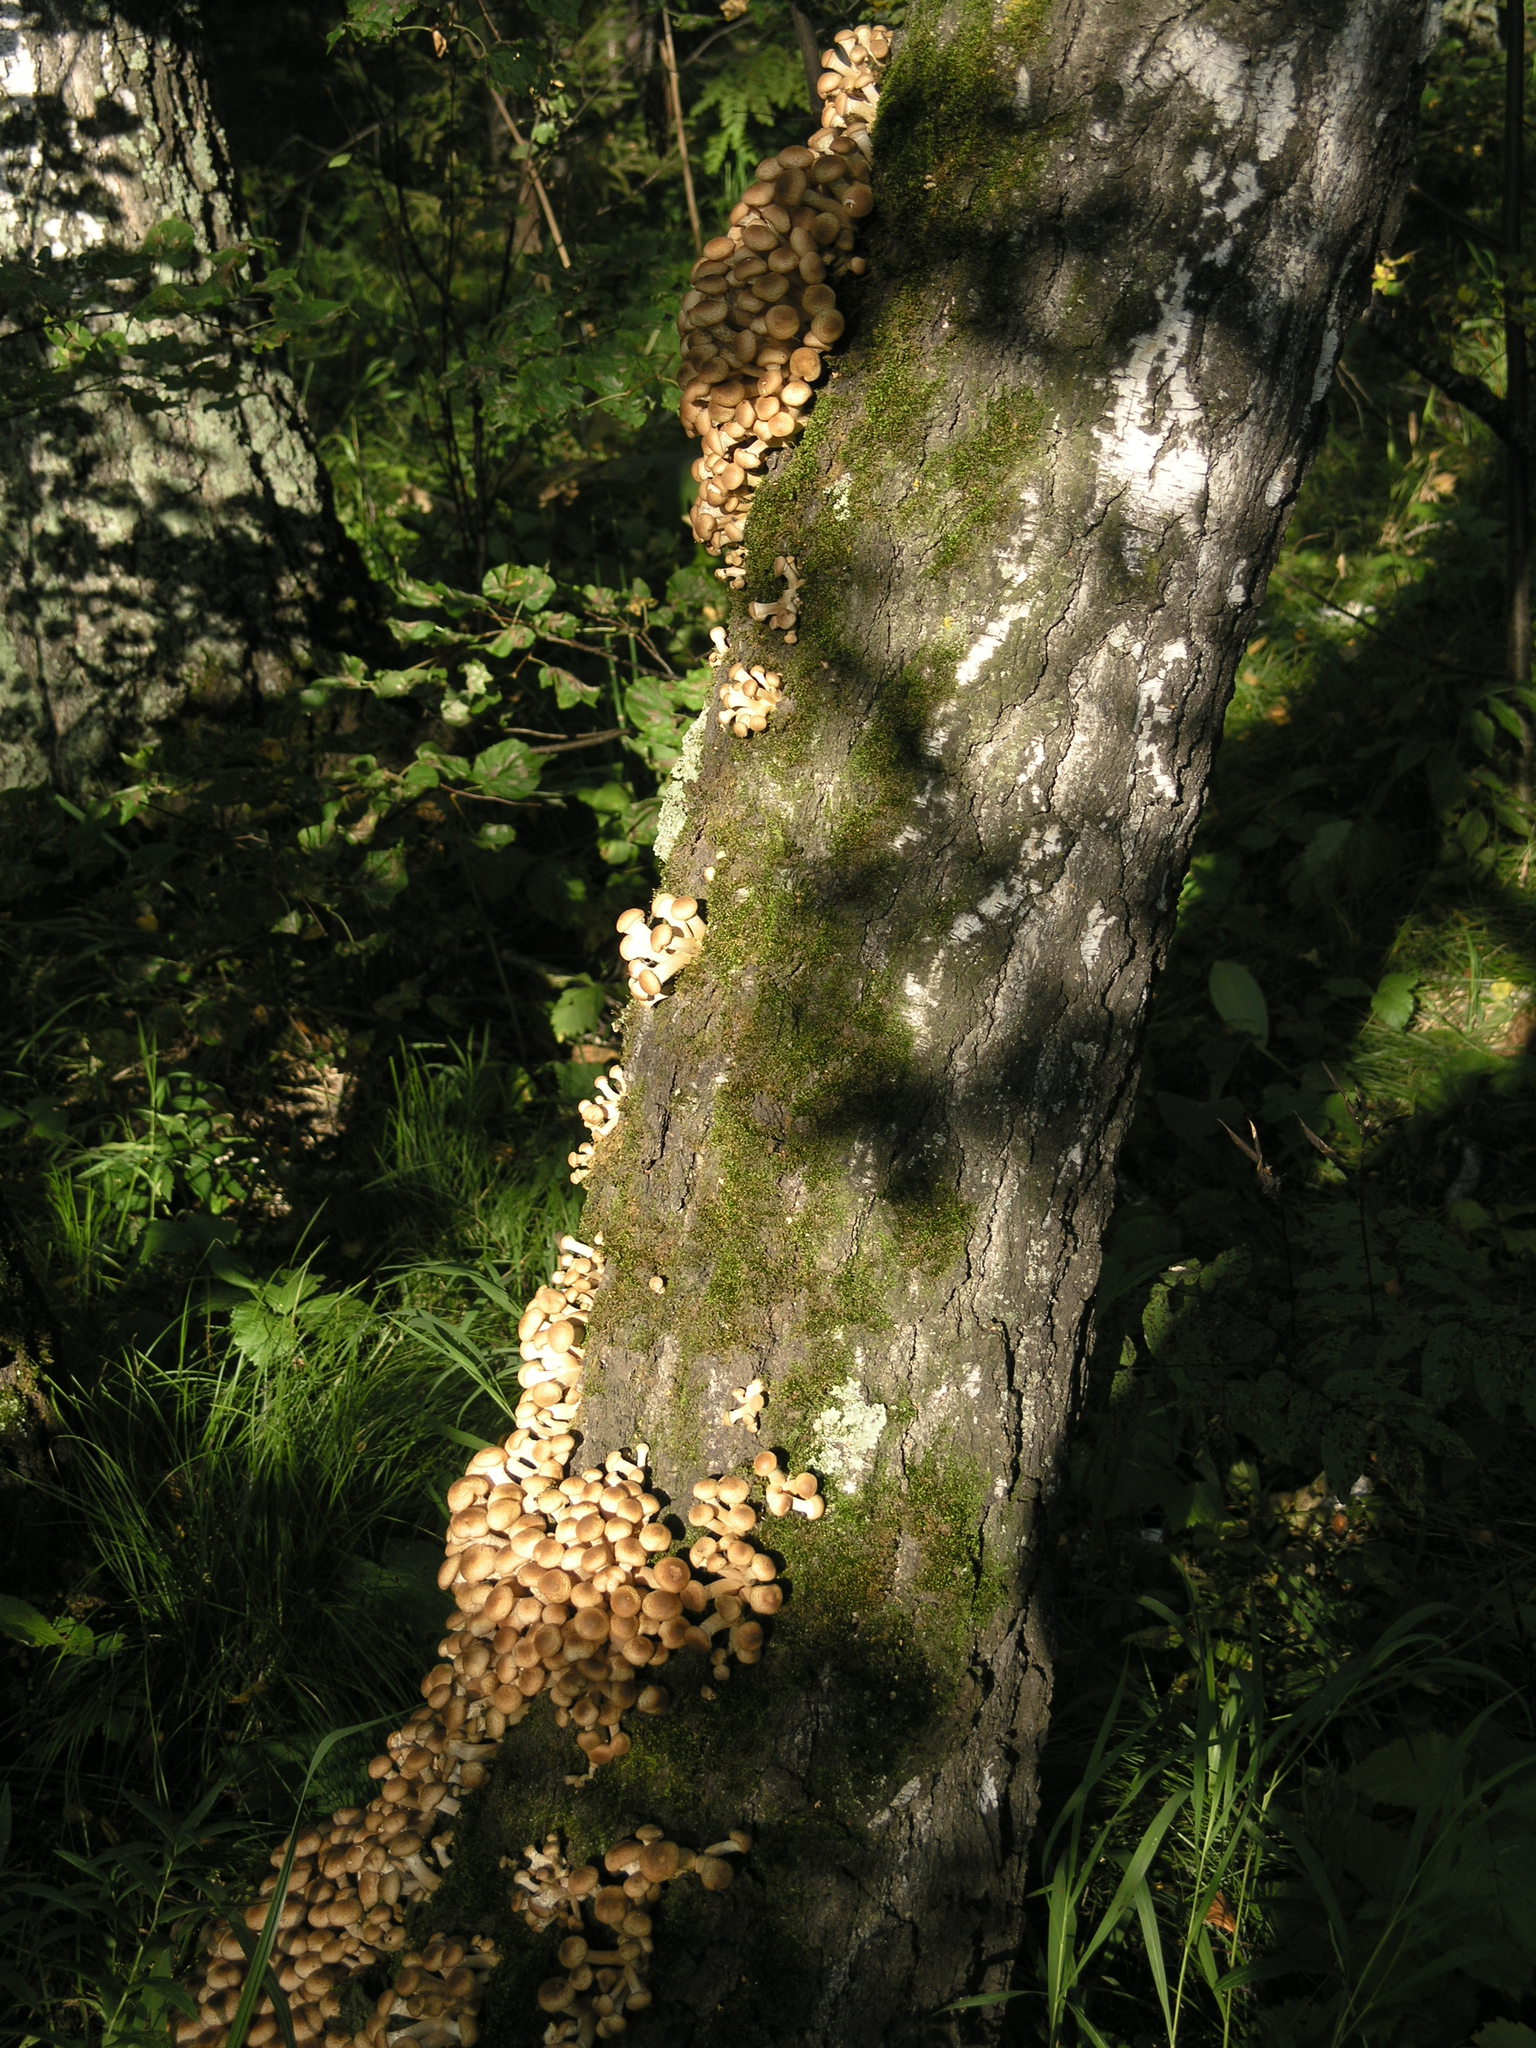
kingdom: Plantae
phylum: Tracheophyta
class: Magnoliopsida
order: Fagales
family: Betulaceae
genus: Betula
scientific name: Betula pendula
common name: Silver birch
